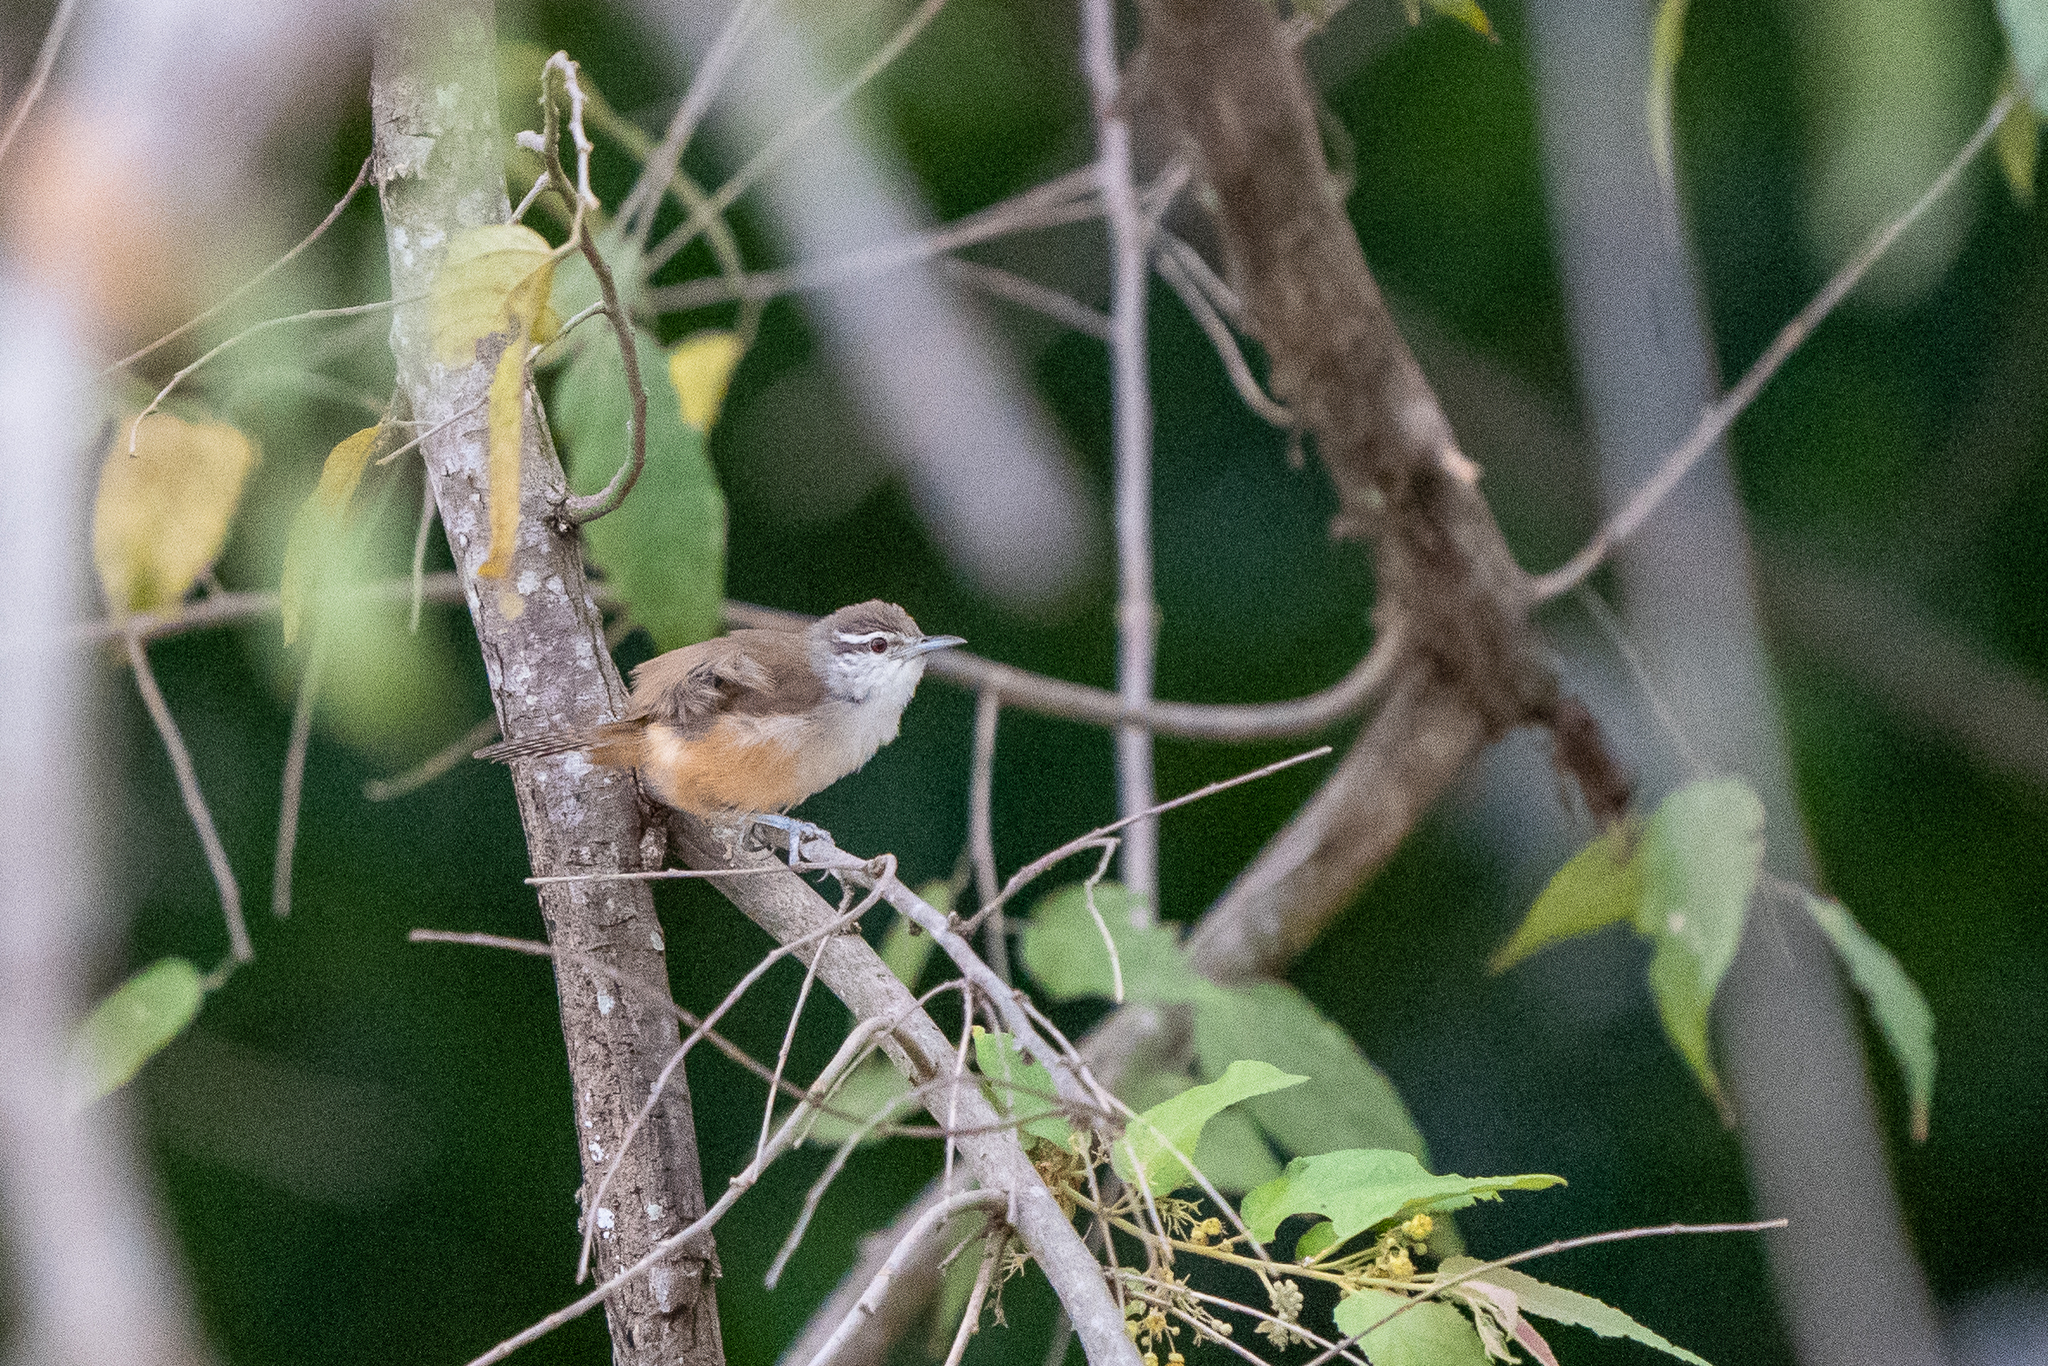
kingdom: Animalia
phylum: Chordata
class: Aves
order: Passeriformes
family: Troglodytidae
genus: Cantorchilus
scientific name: Cantorchilus modestus
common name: Cabanis's wren
